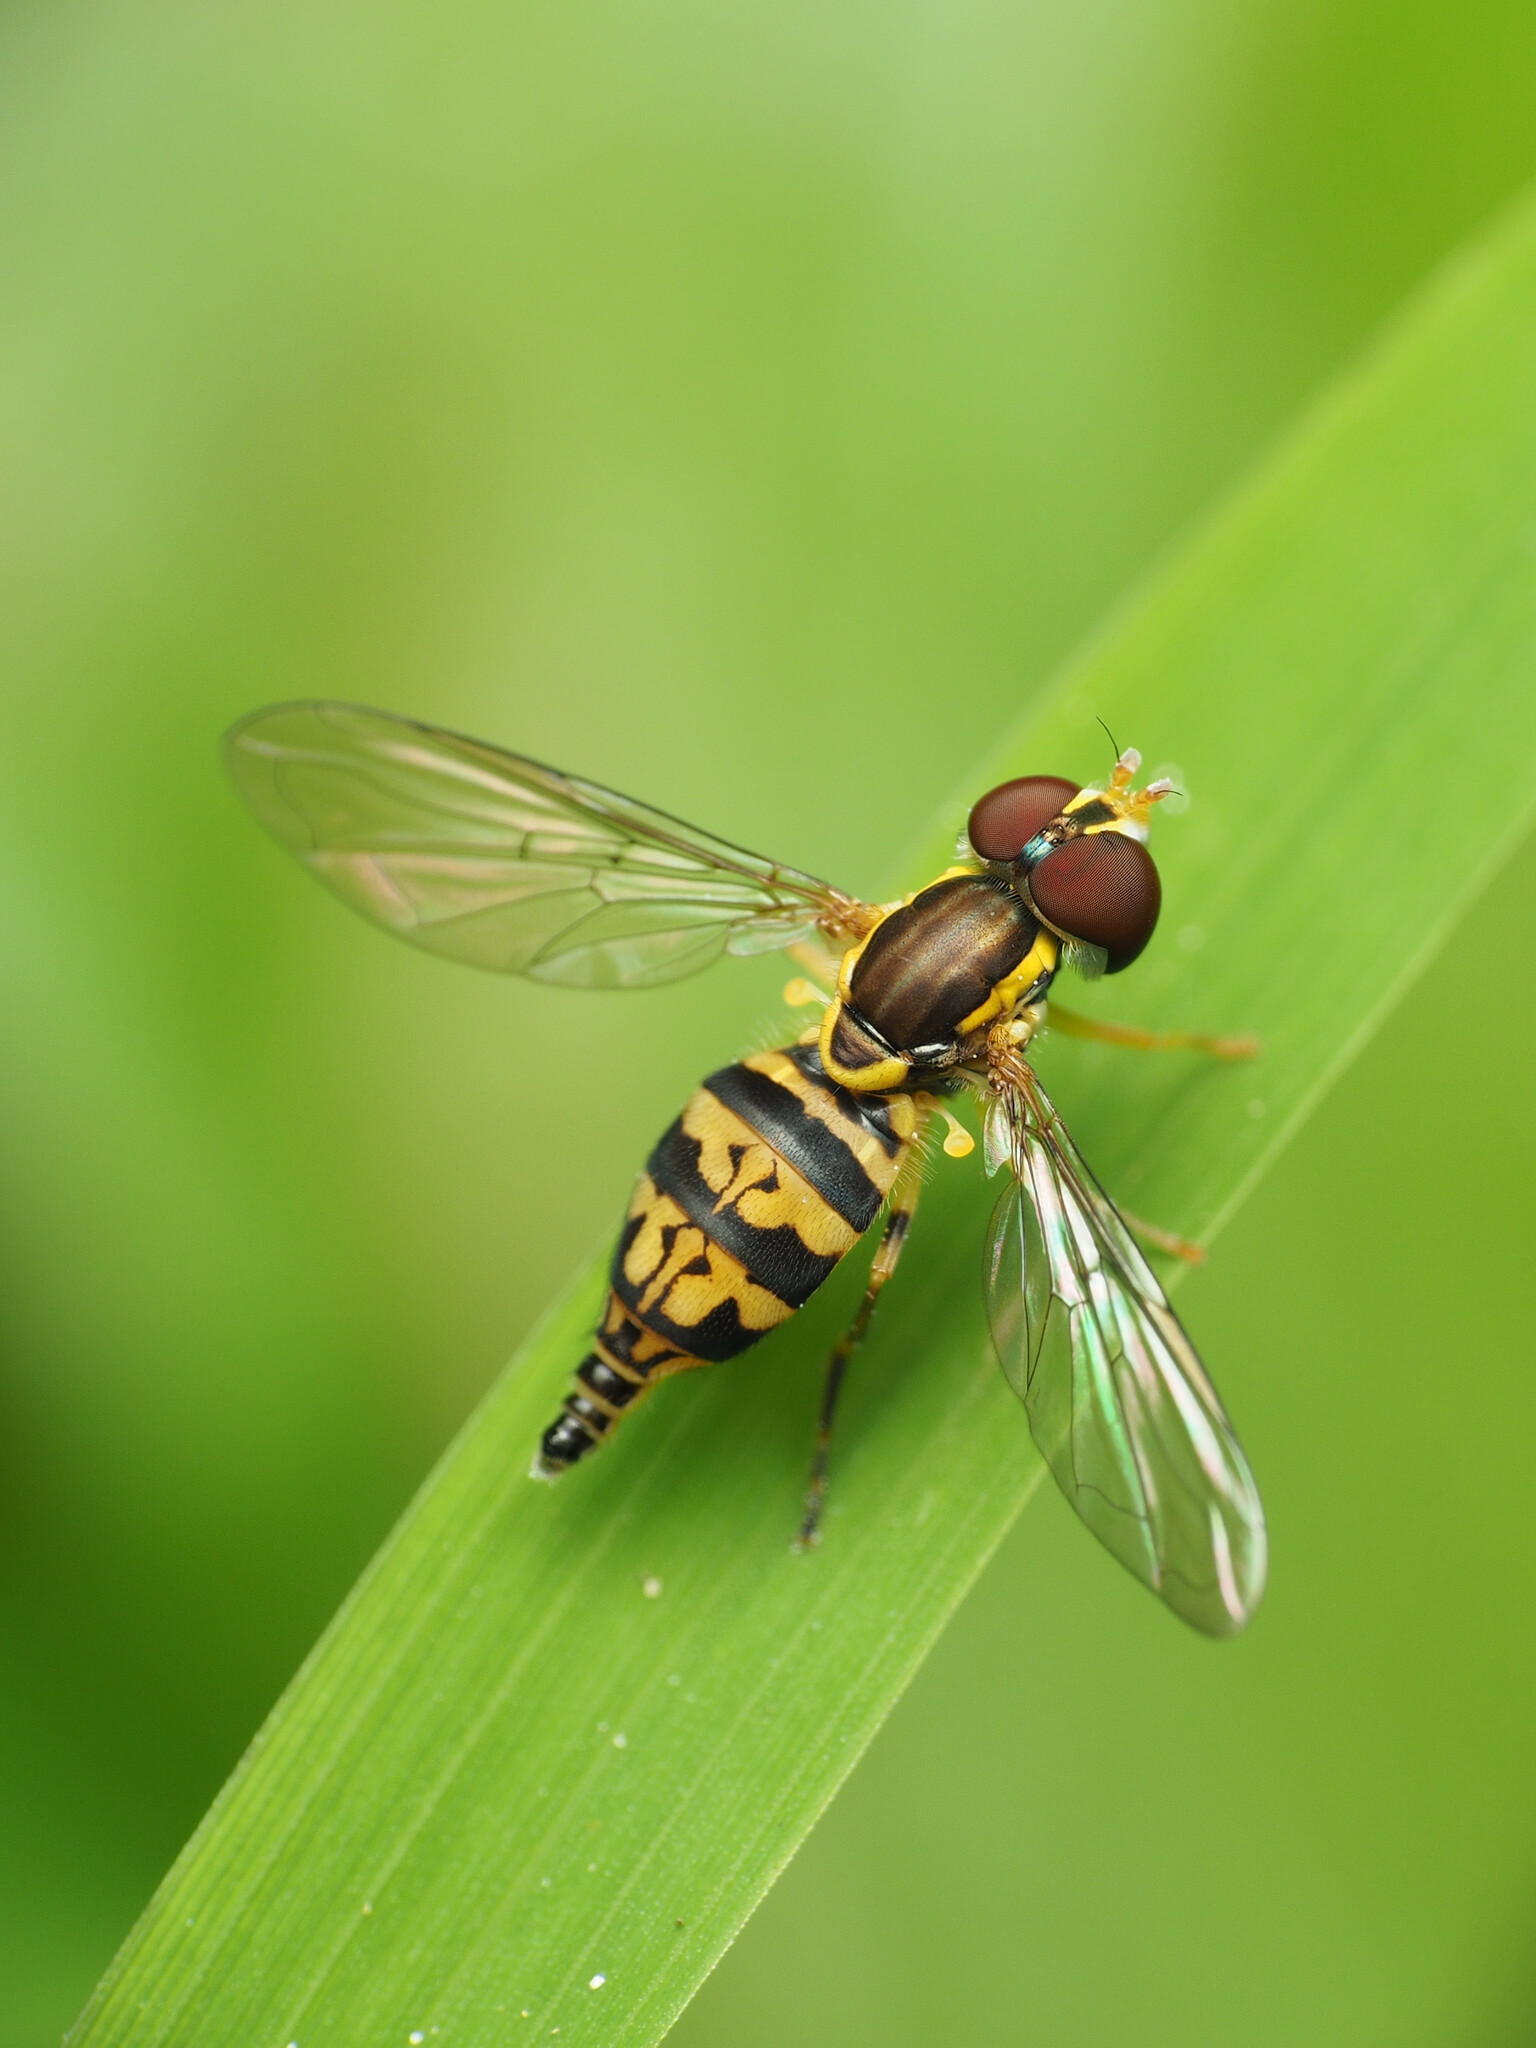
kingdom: Animalia
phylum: Arthropoda
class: Insecta
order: Diptera
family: Syrphidae
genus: Toxomerus
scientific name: Toxomerus geminatus
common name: Eastern calligrapher
